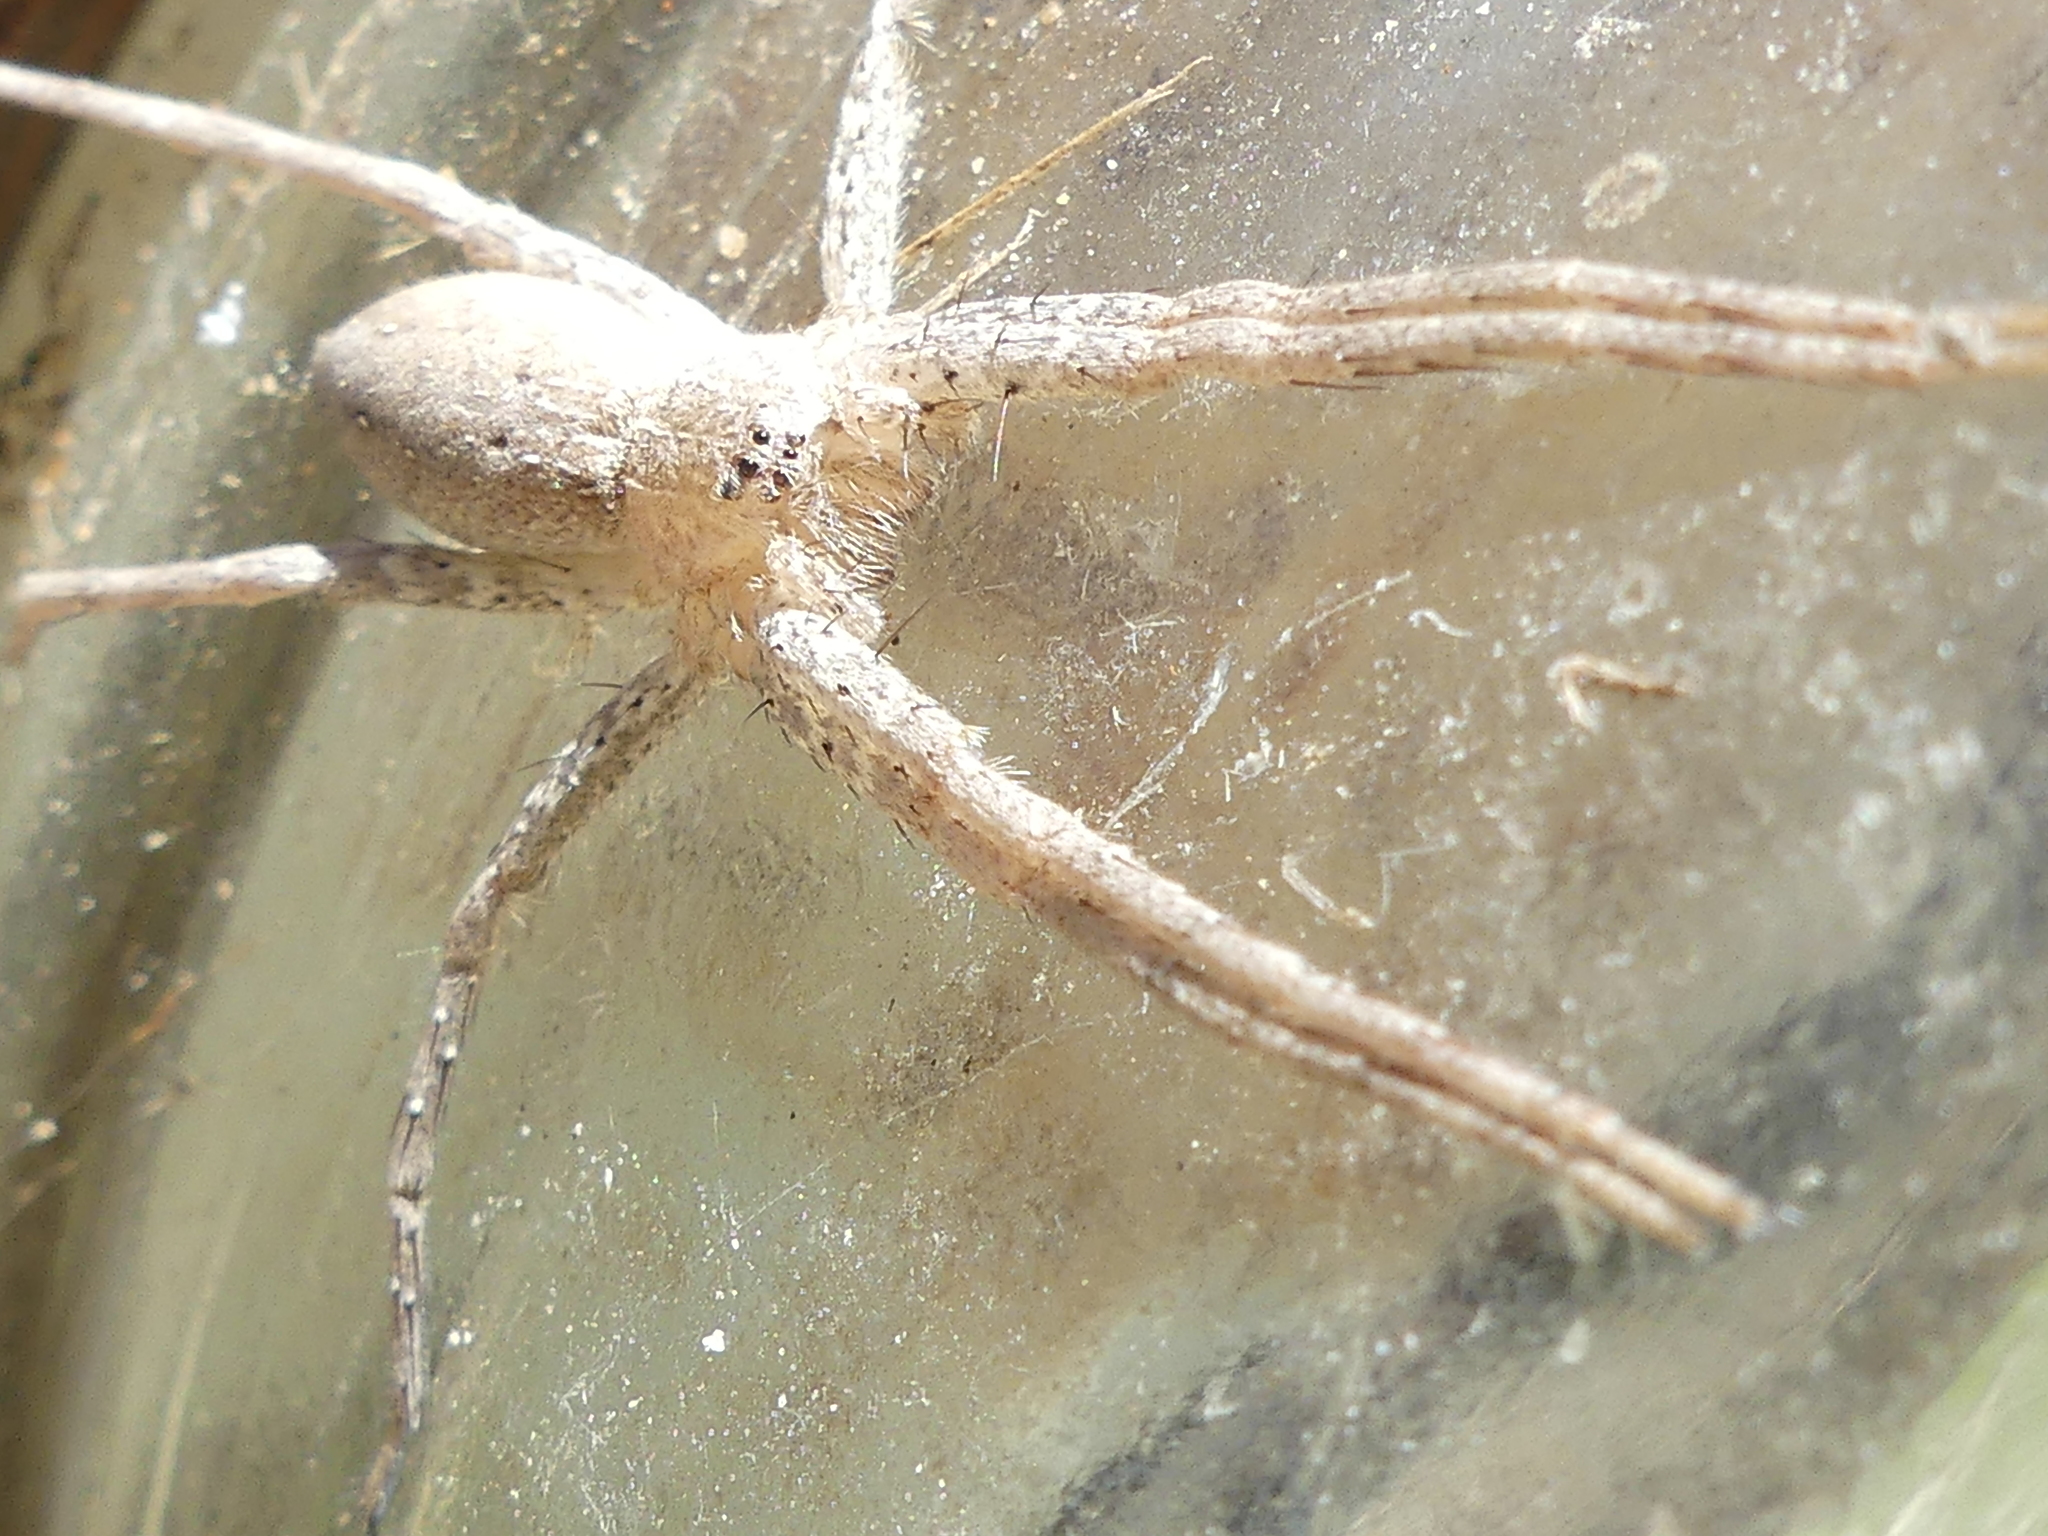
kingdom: Animalia
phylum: Arthropoda
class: Arachnida
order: Araneae
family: Pisauridae
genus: Pisaurina
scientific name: Pisaurina mira
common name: American nursery web spider
